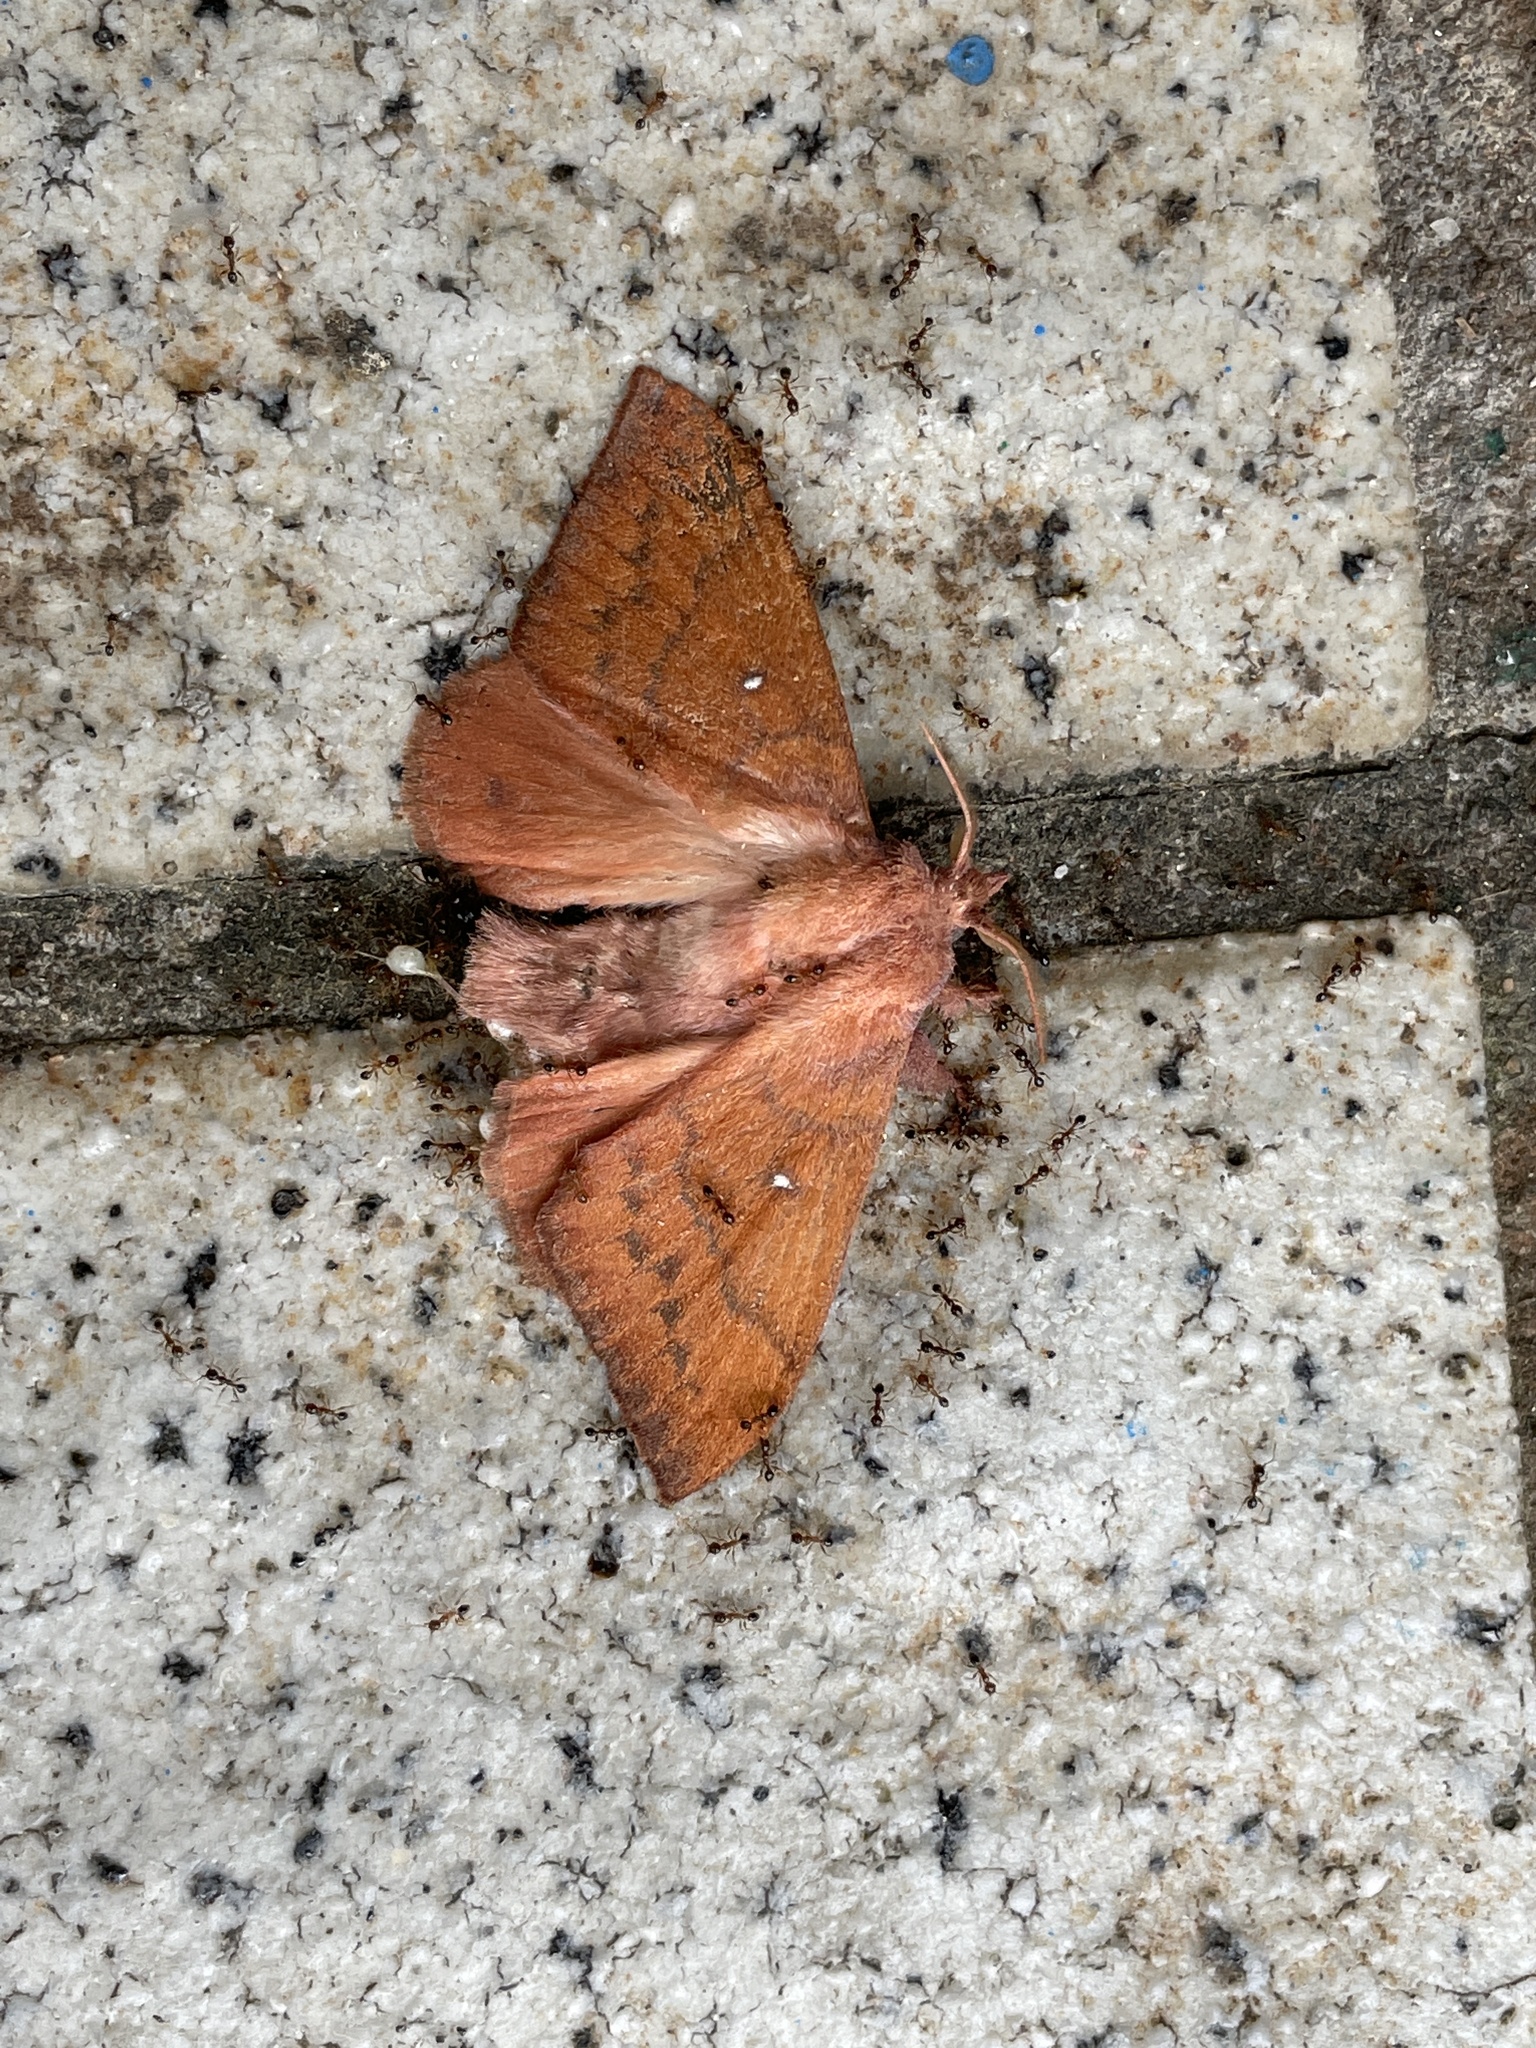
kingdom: Animalia
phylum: Arthropoda
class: Insecta
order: Lepidoptera
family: Lasiocampidae
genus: Odonestis
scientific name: Odonestis vita
